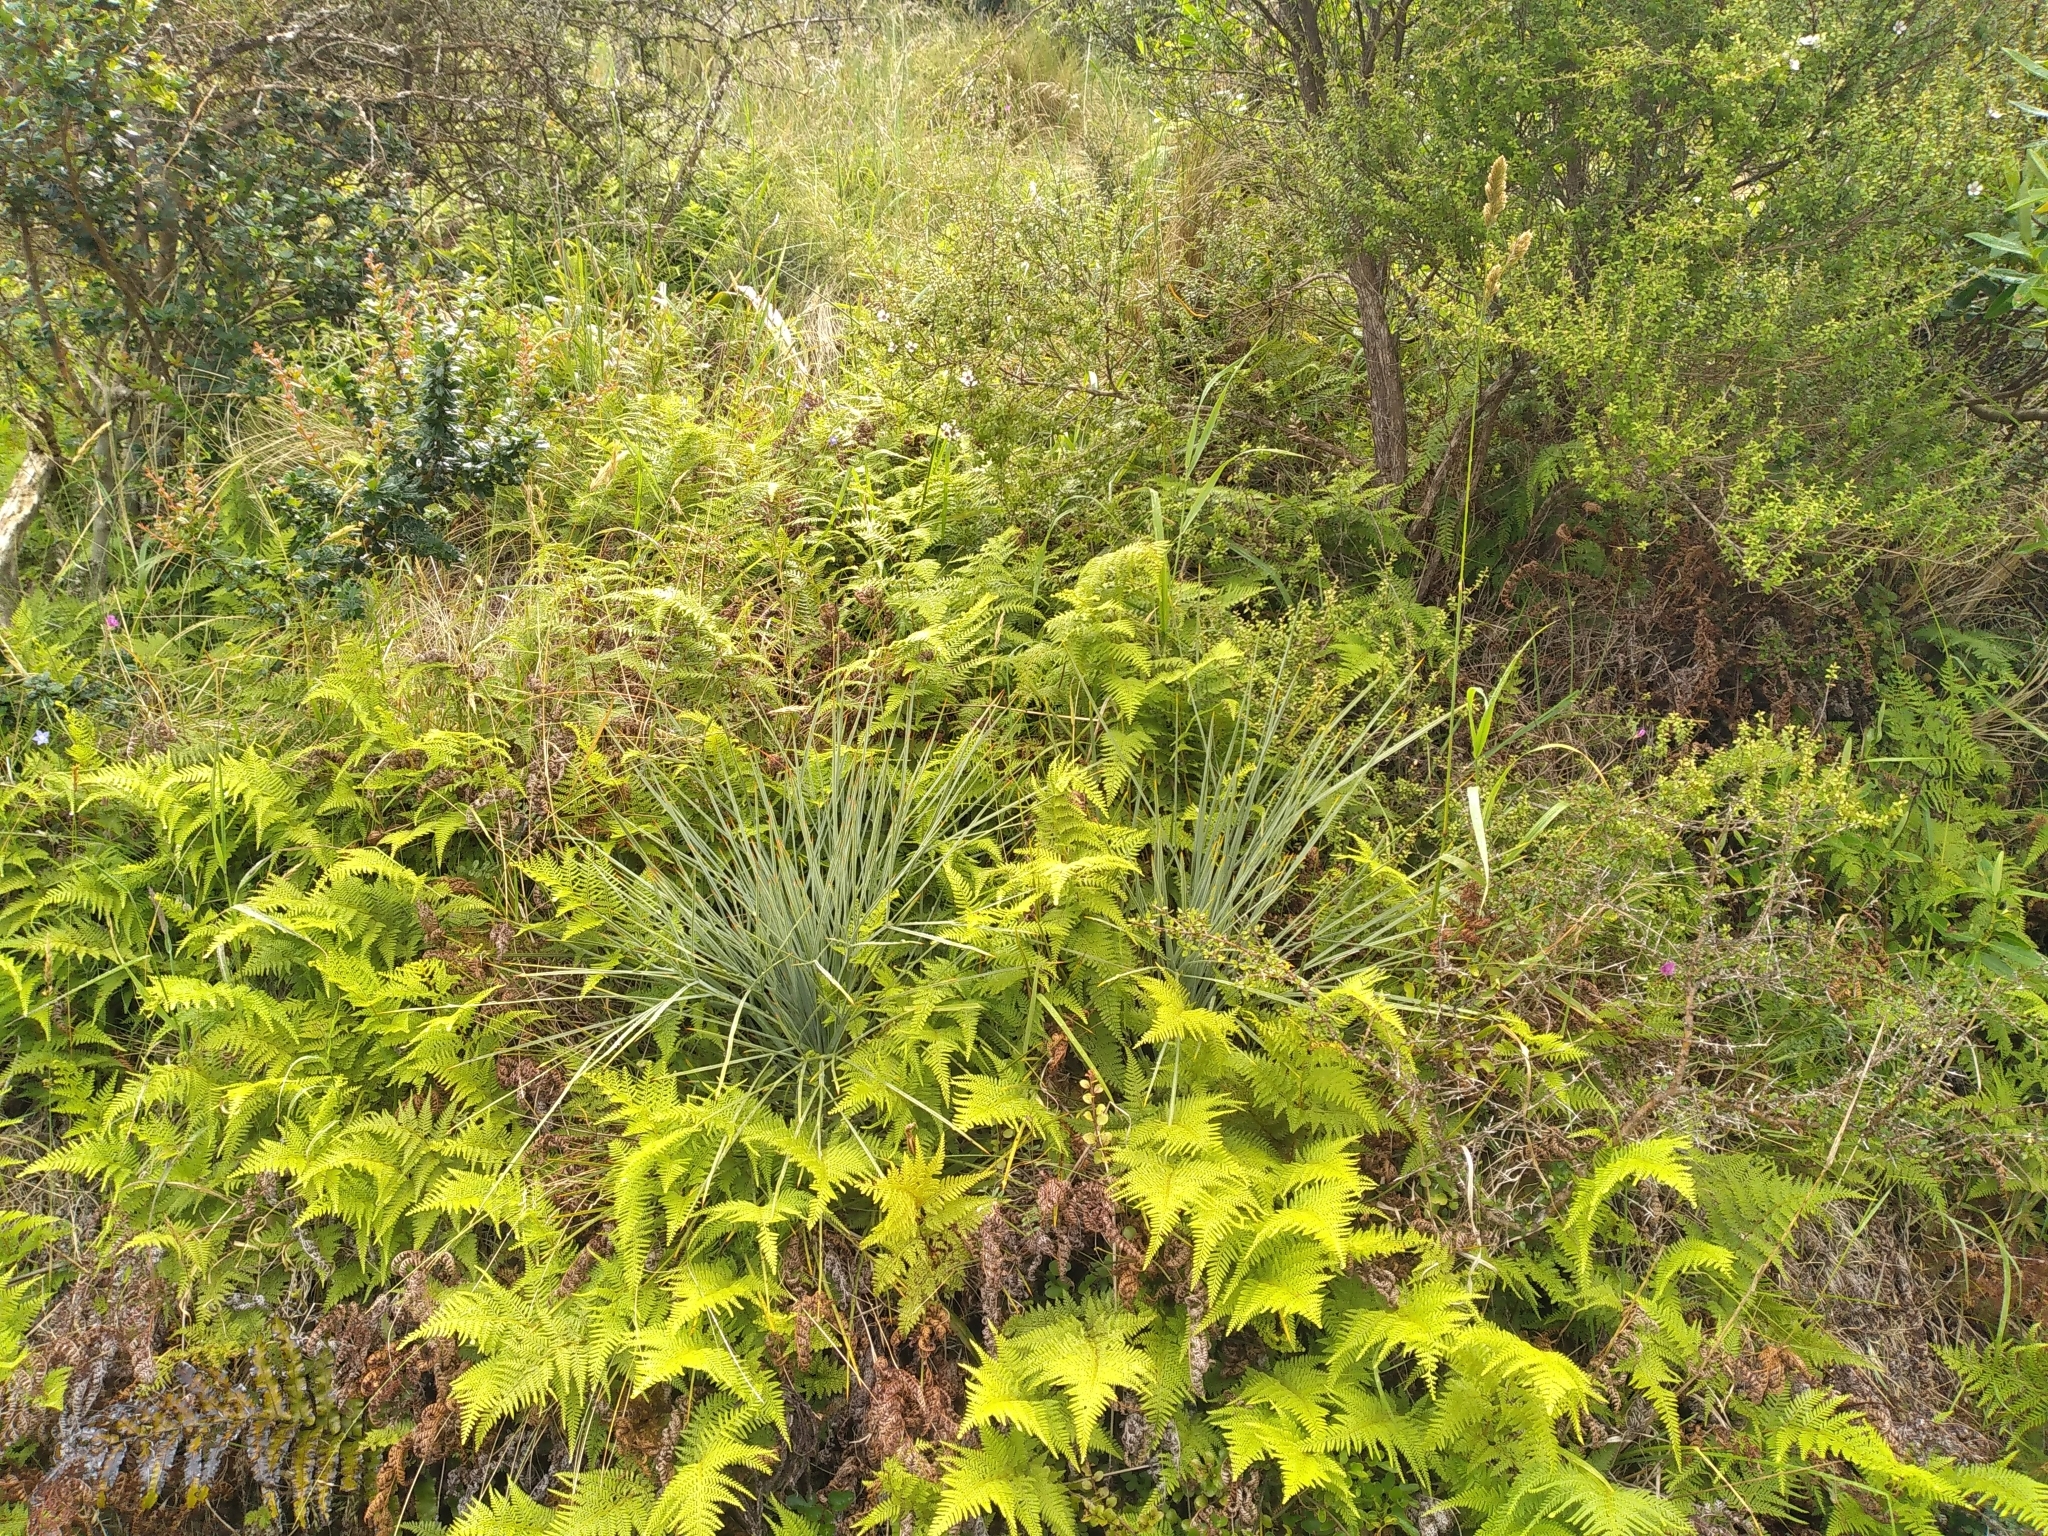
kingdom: Plantae
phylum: Tracheophyta
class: Magnoliopsida
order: Apiales
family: Apiaceae
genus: Aciphylla
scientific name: Aciphylla squarrosa
